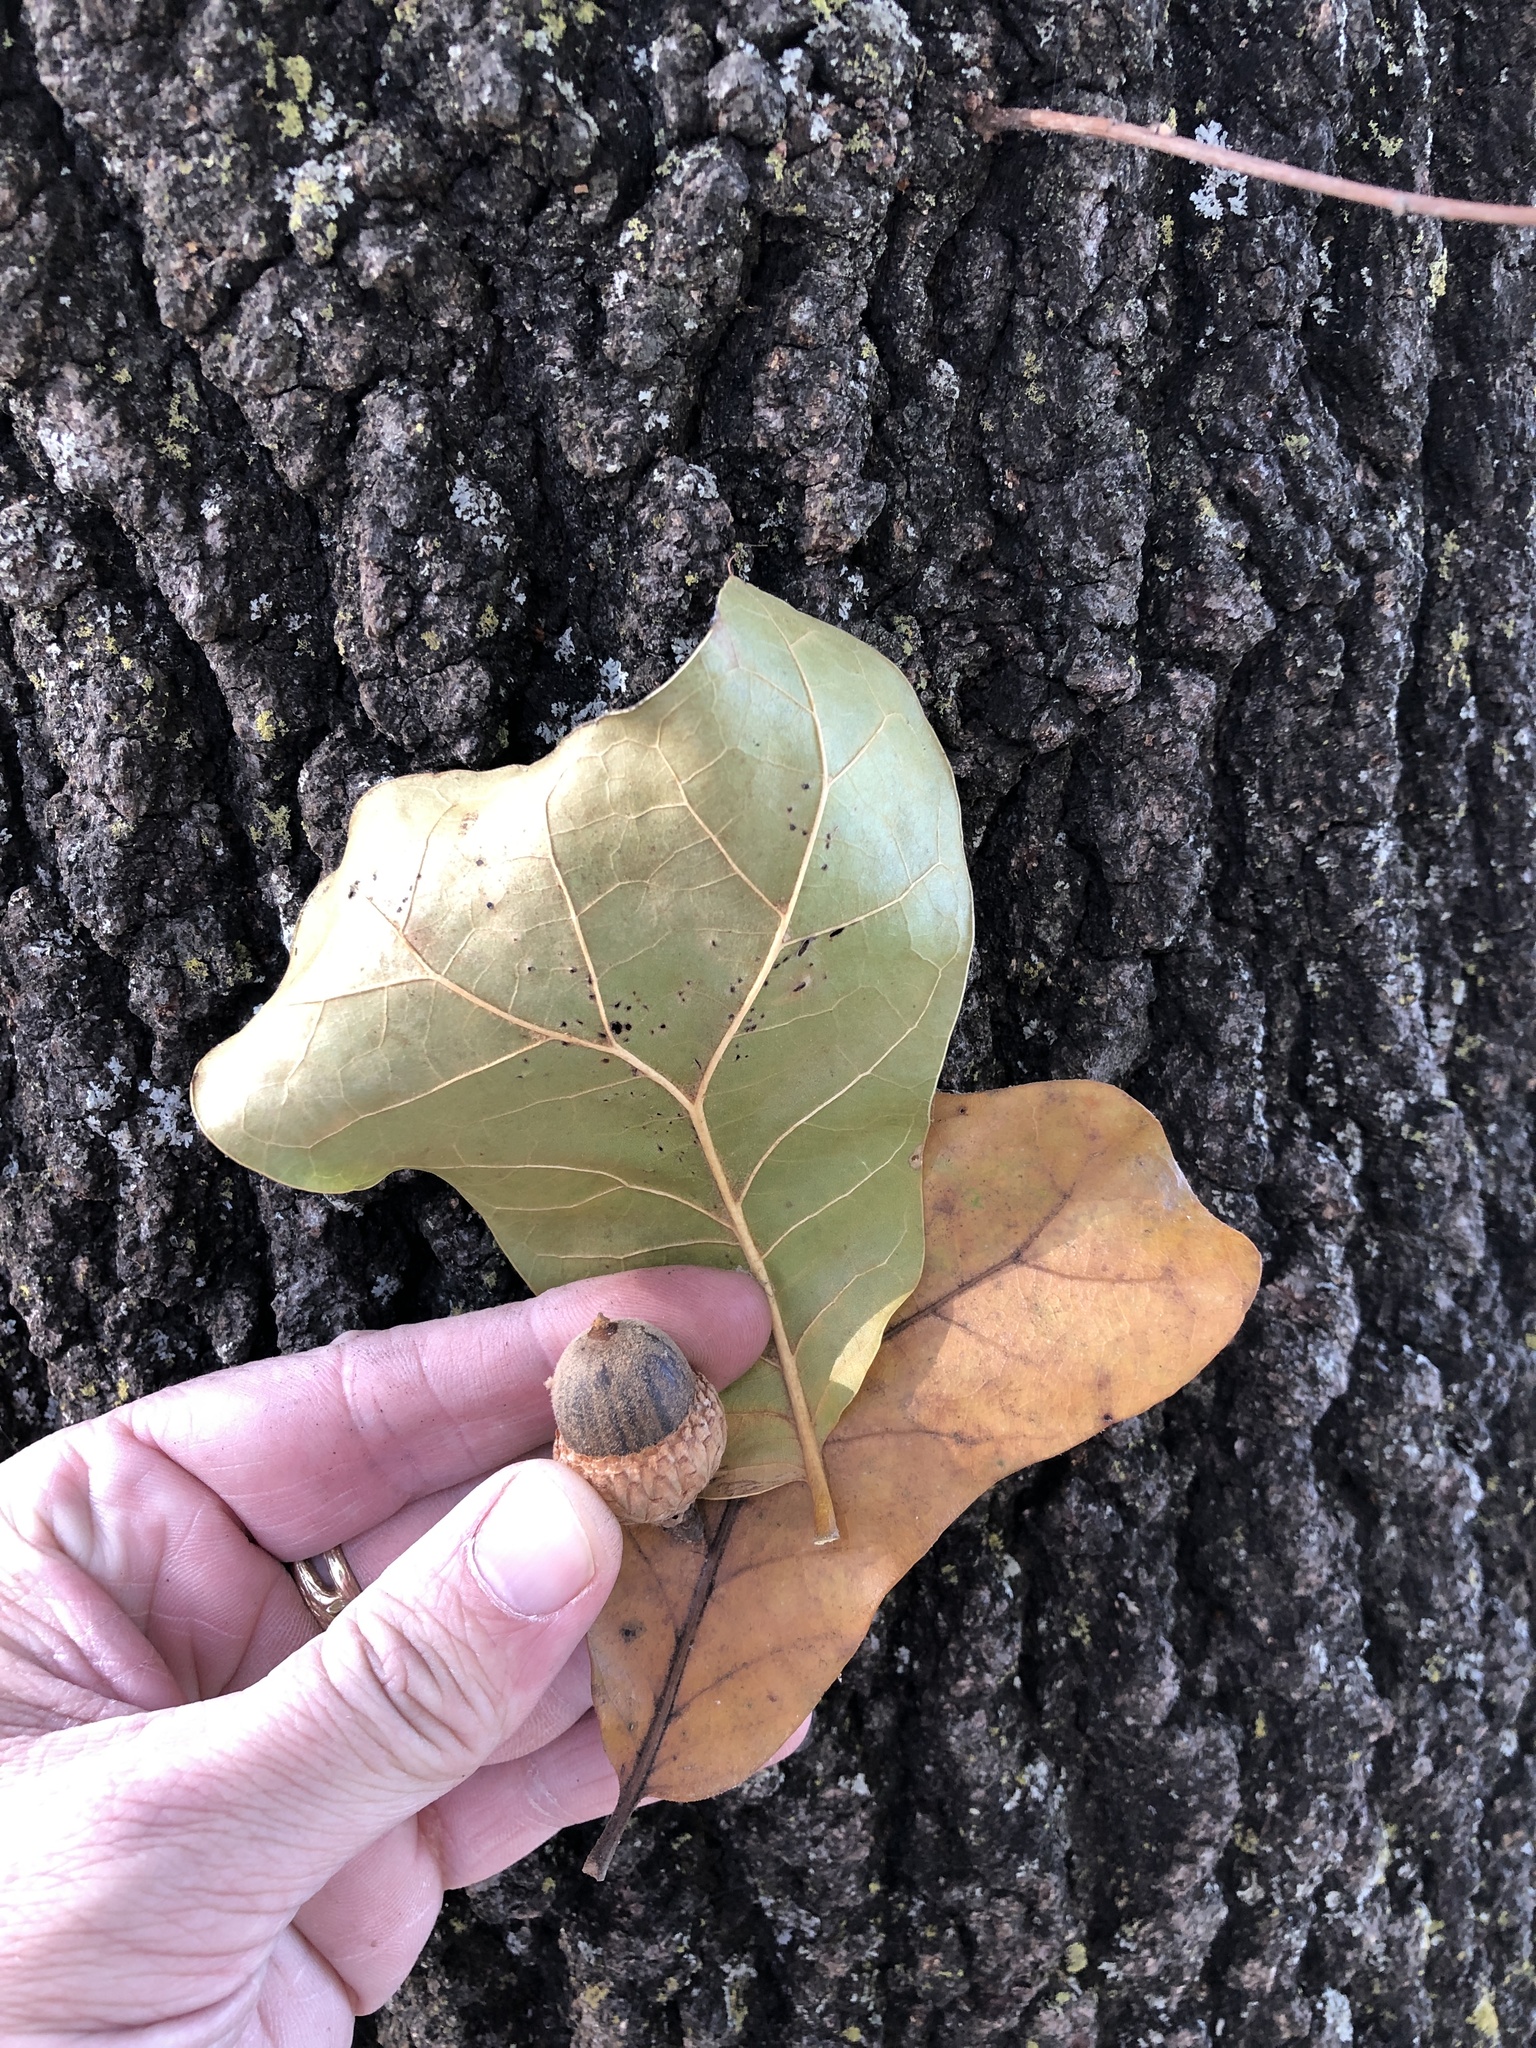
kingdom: Plantae
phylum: Tracheophyta
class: Magnoliopsida
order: Fagales
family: Fagaceae
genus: Quercus
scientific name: Quercus marilandica
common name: Blackjack oak
